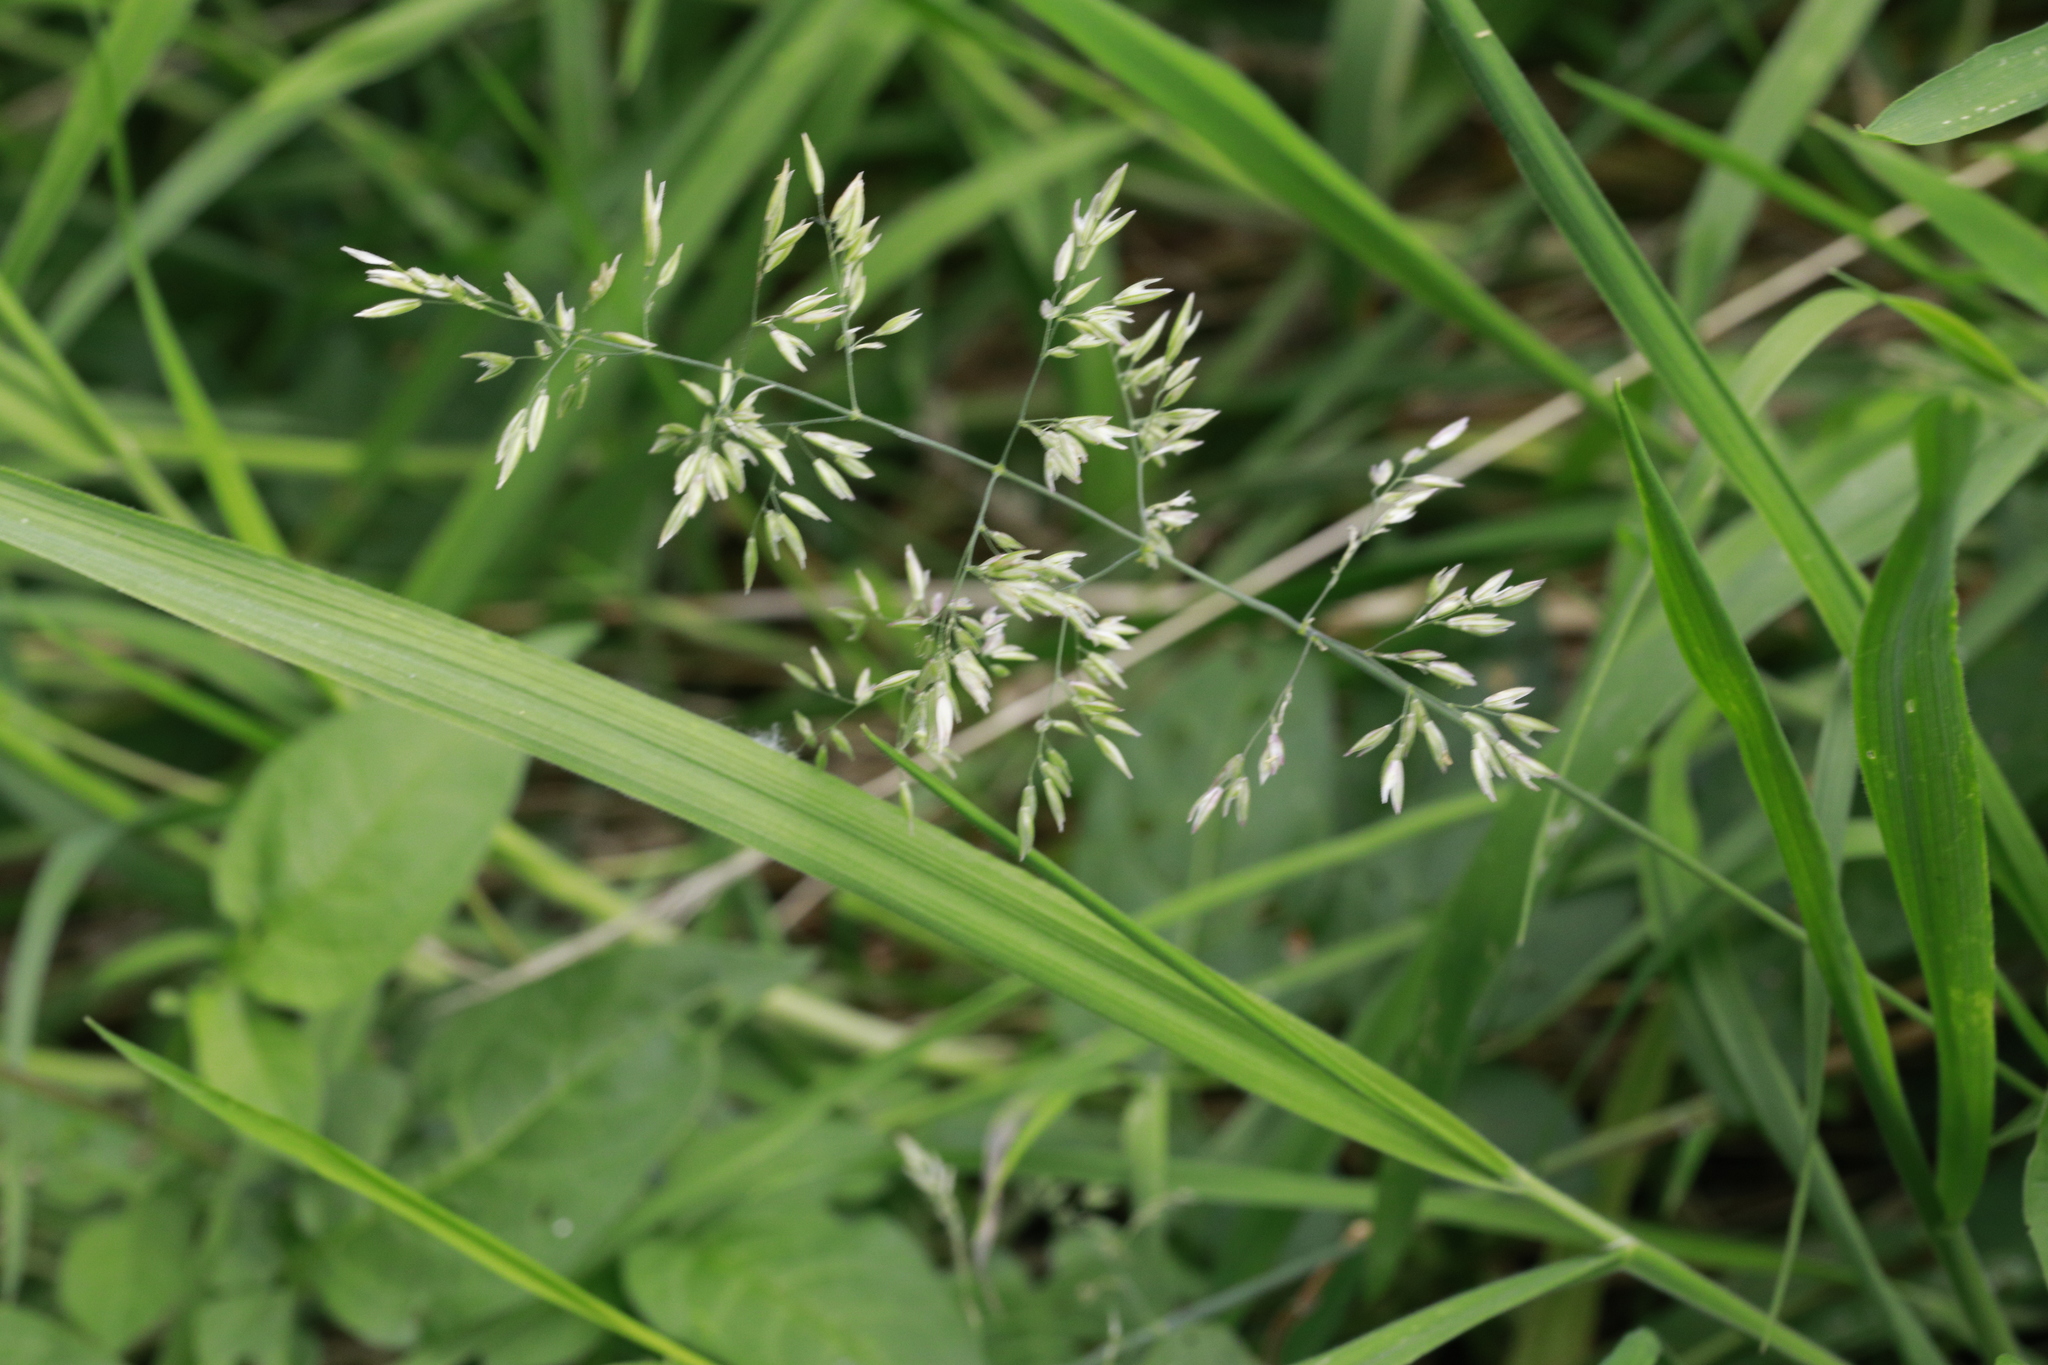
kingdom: Plantae
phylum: Tracheophyta
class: Liliopsida
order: Poales
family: Poaceae
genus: Holcus
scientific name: Holcus lanatus
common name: Yorkshire-fog
